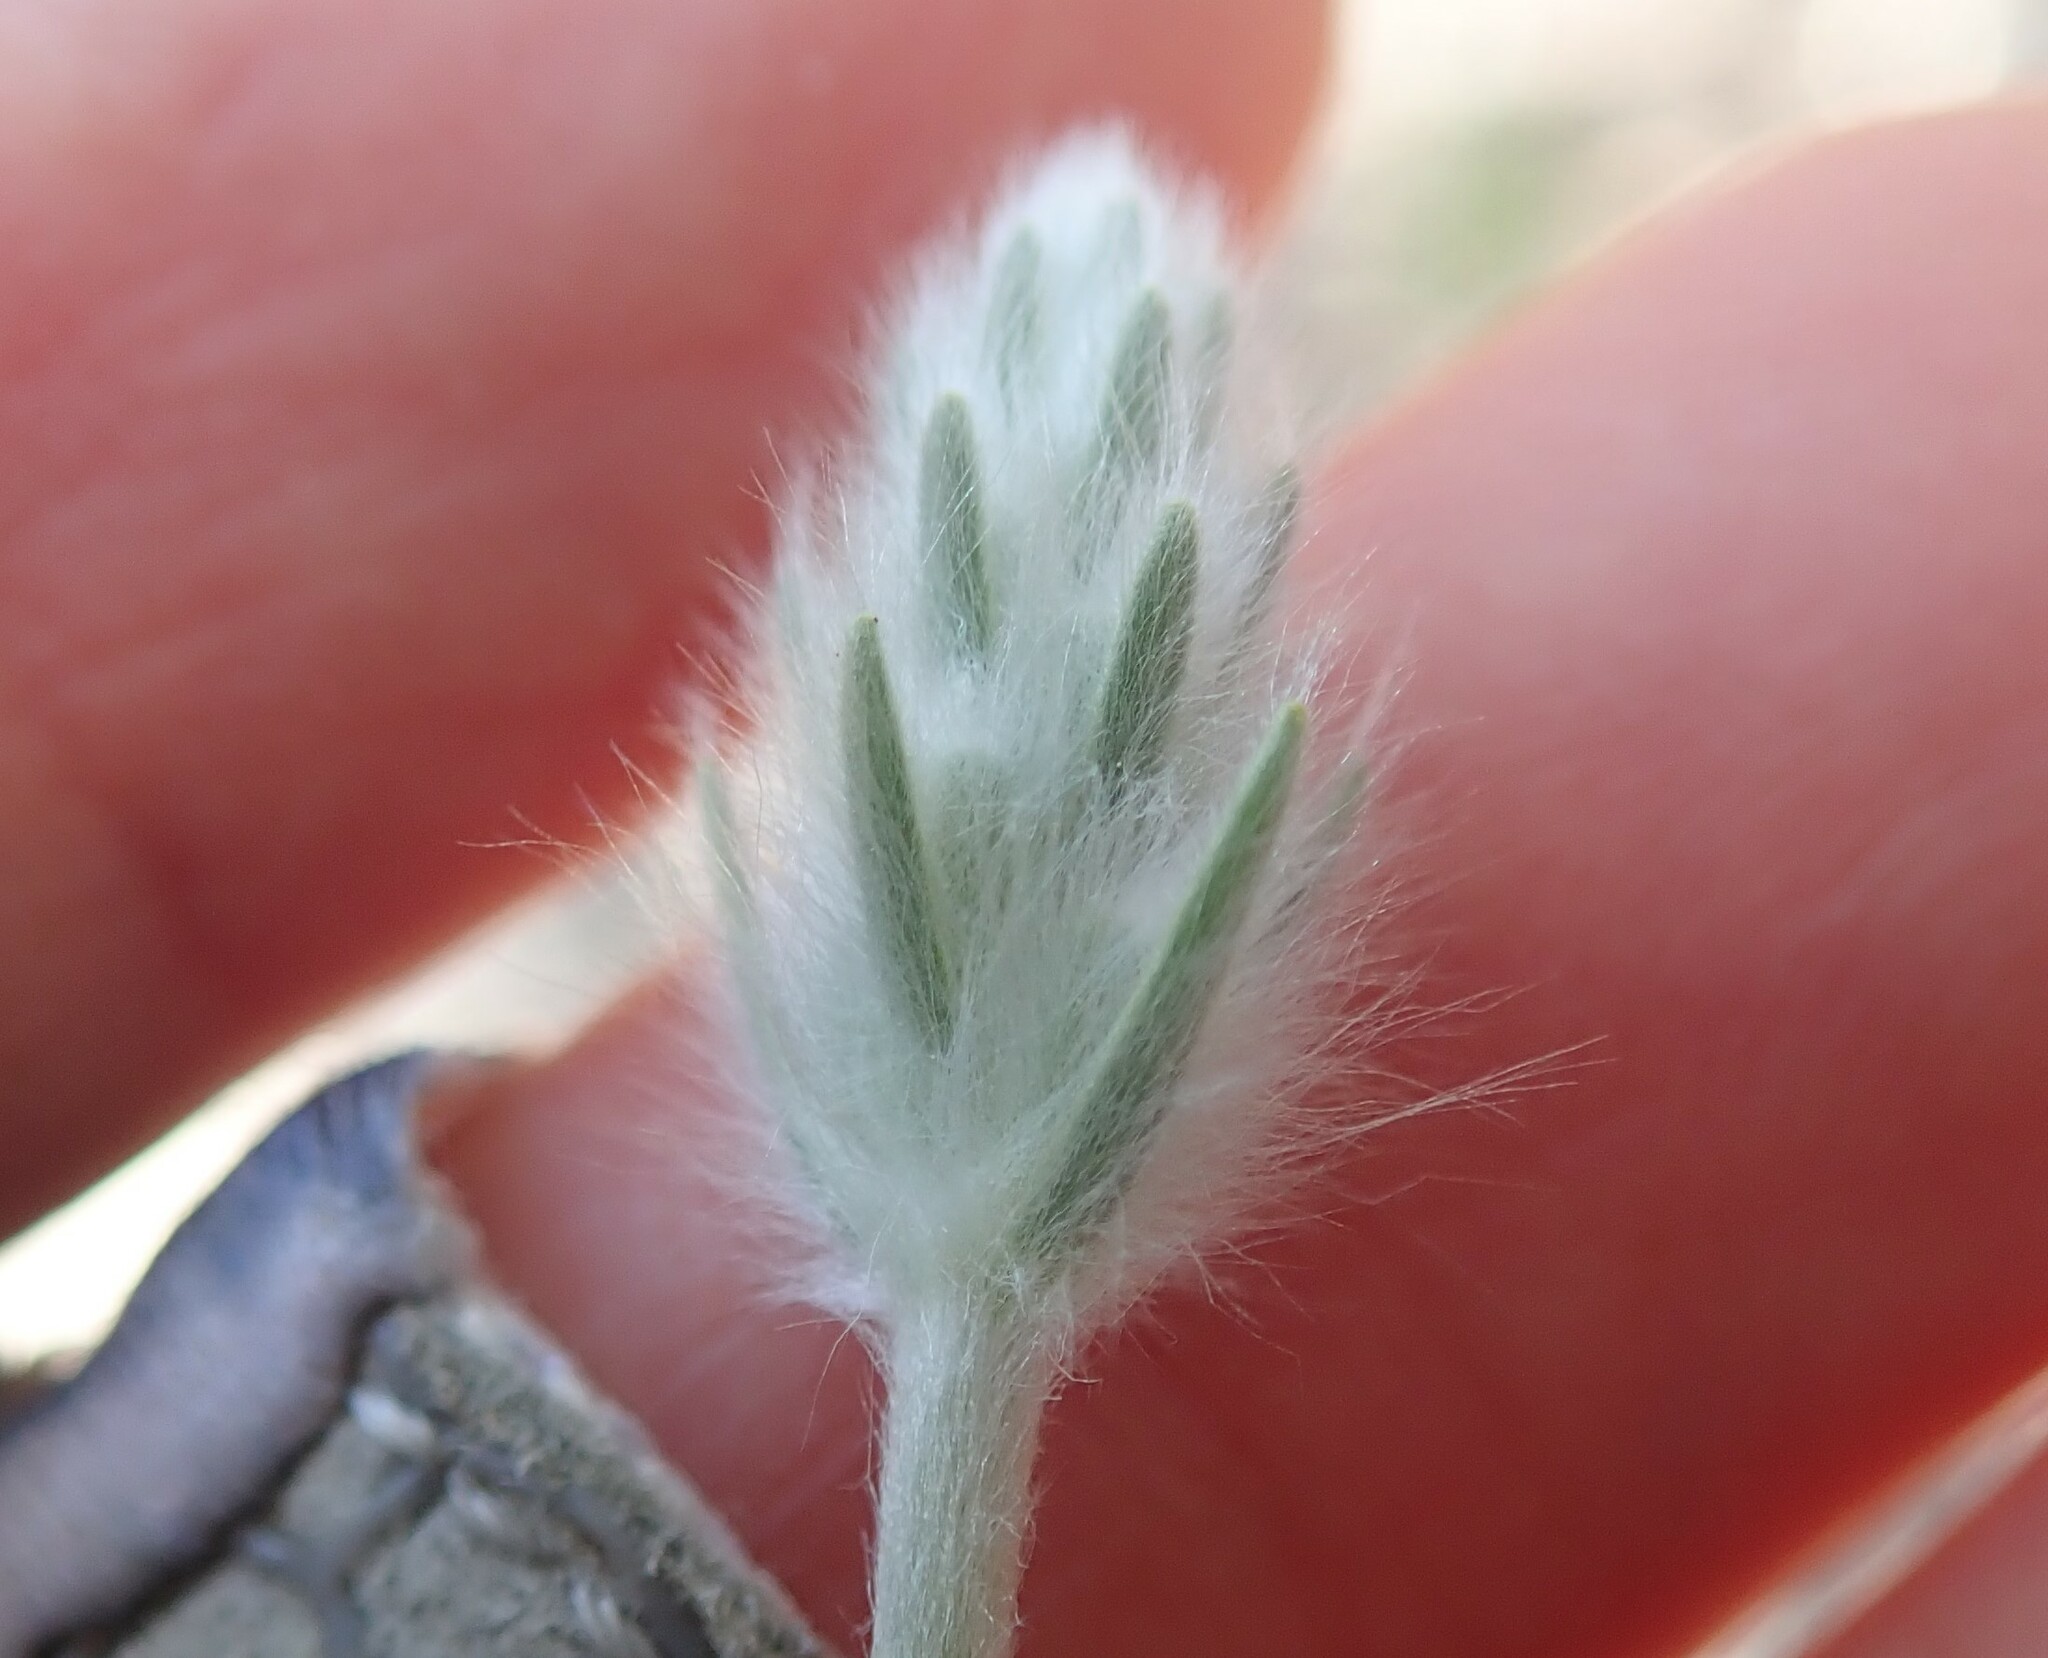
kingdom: Plantae
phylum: Tracheophyta
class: Magnoliopsida
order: Lamiales
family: Plantaginaceae
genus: Plantago
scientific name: Plantago patagonica
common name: Patagonia indian-wheat
